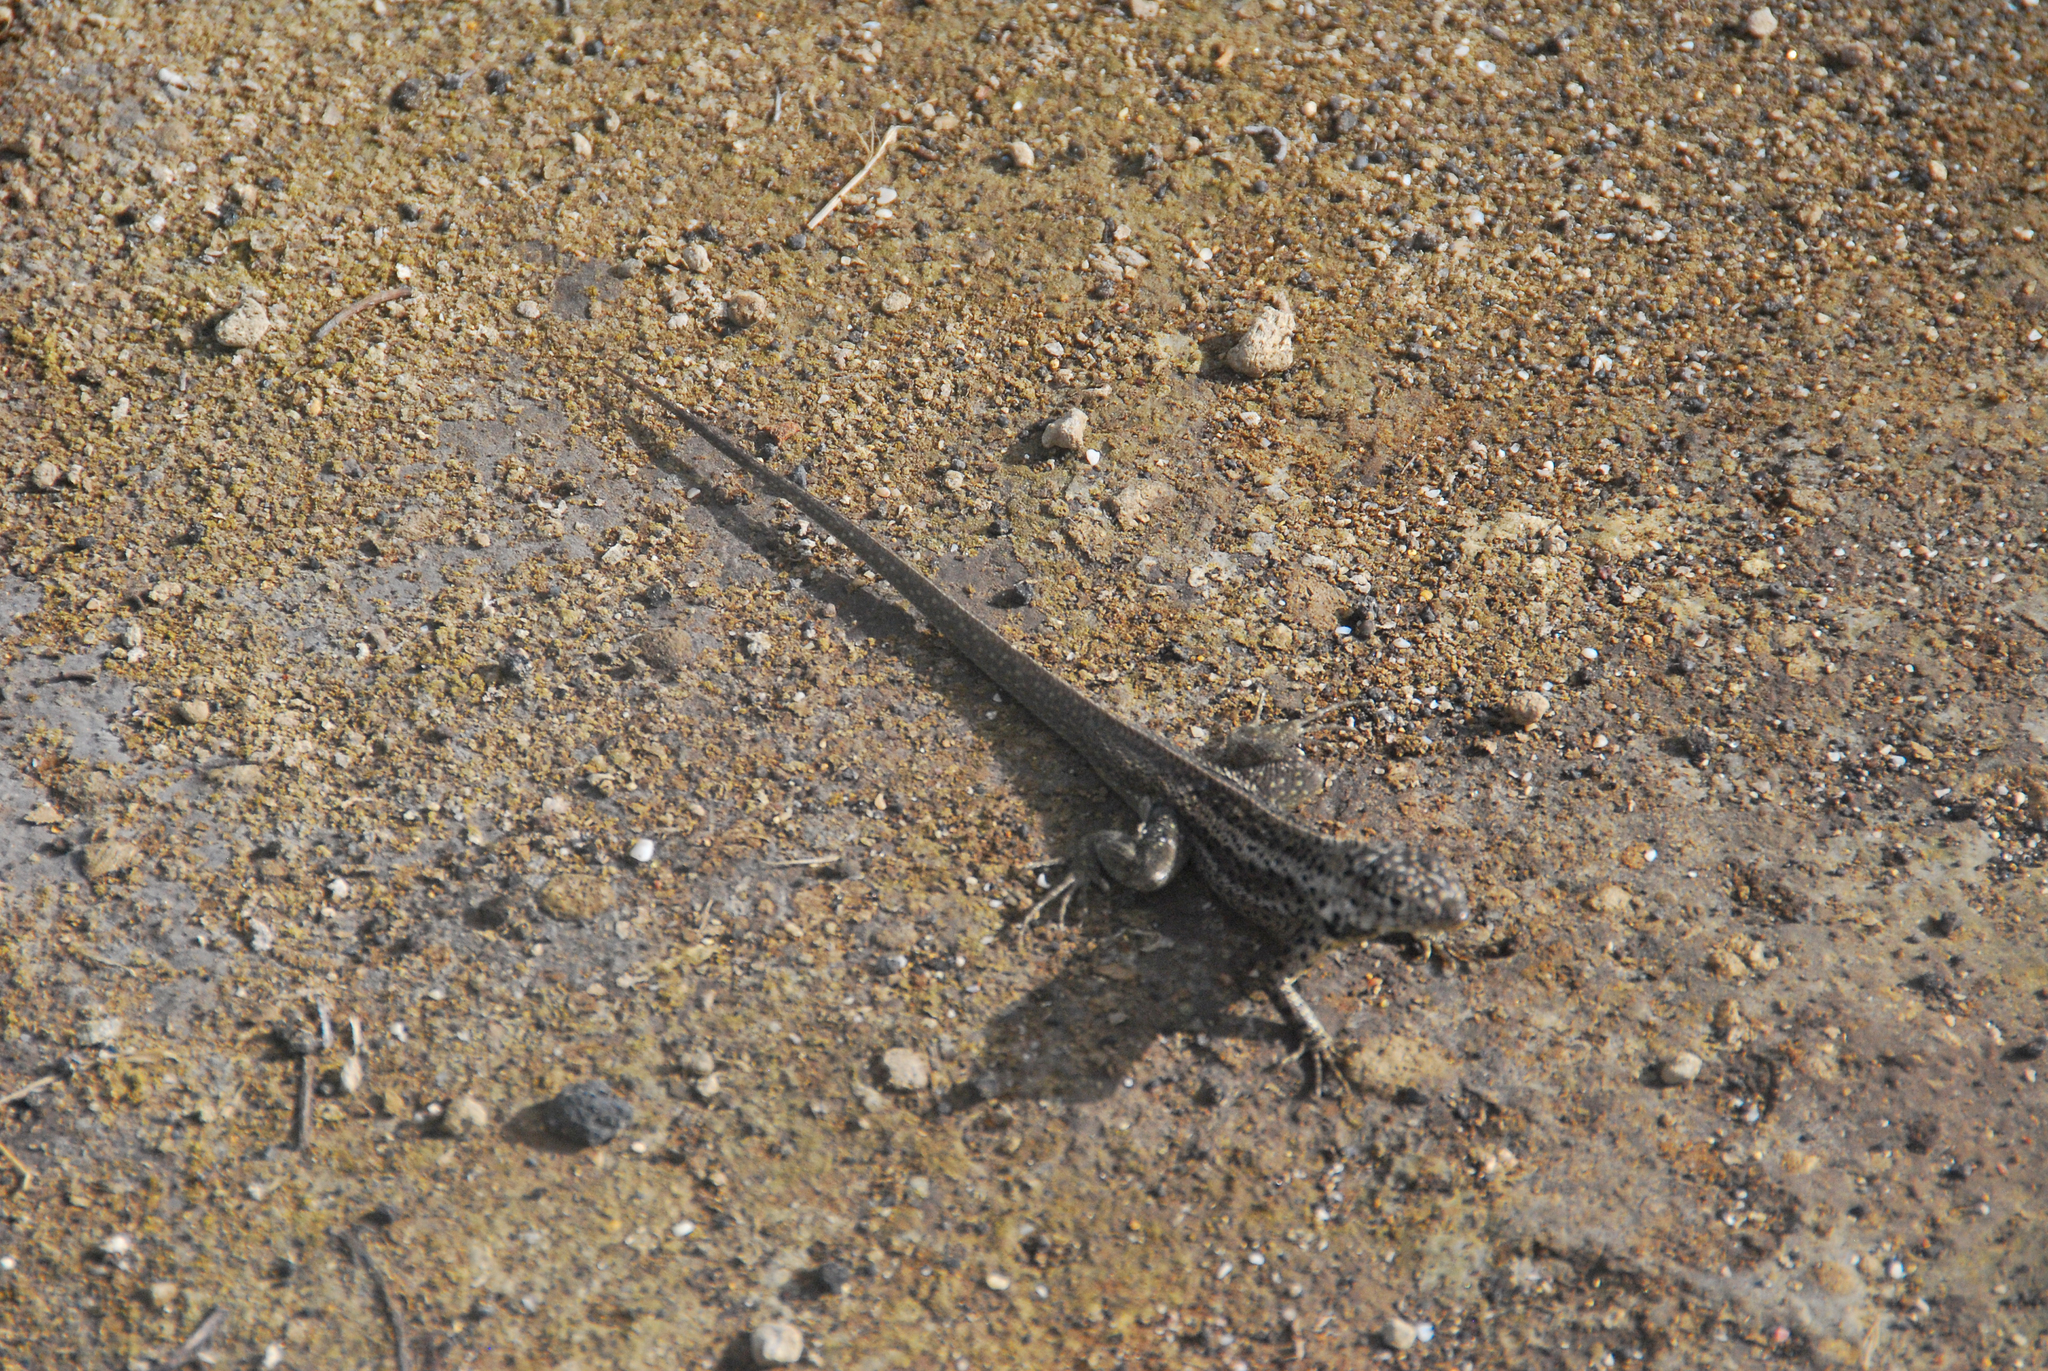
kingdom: Animalia
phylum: Chordata
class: Squamata
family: Tropiduridae
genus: Microlophus
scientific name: Microlophus albemarlensis
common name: Galapagos lava lizard
